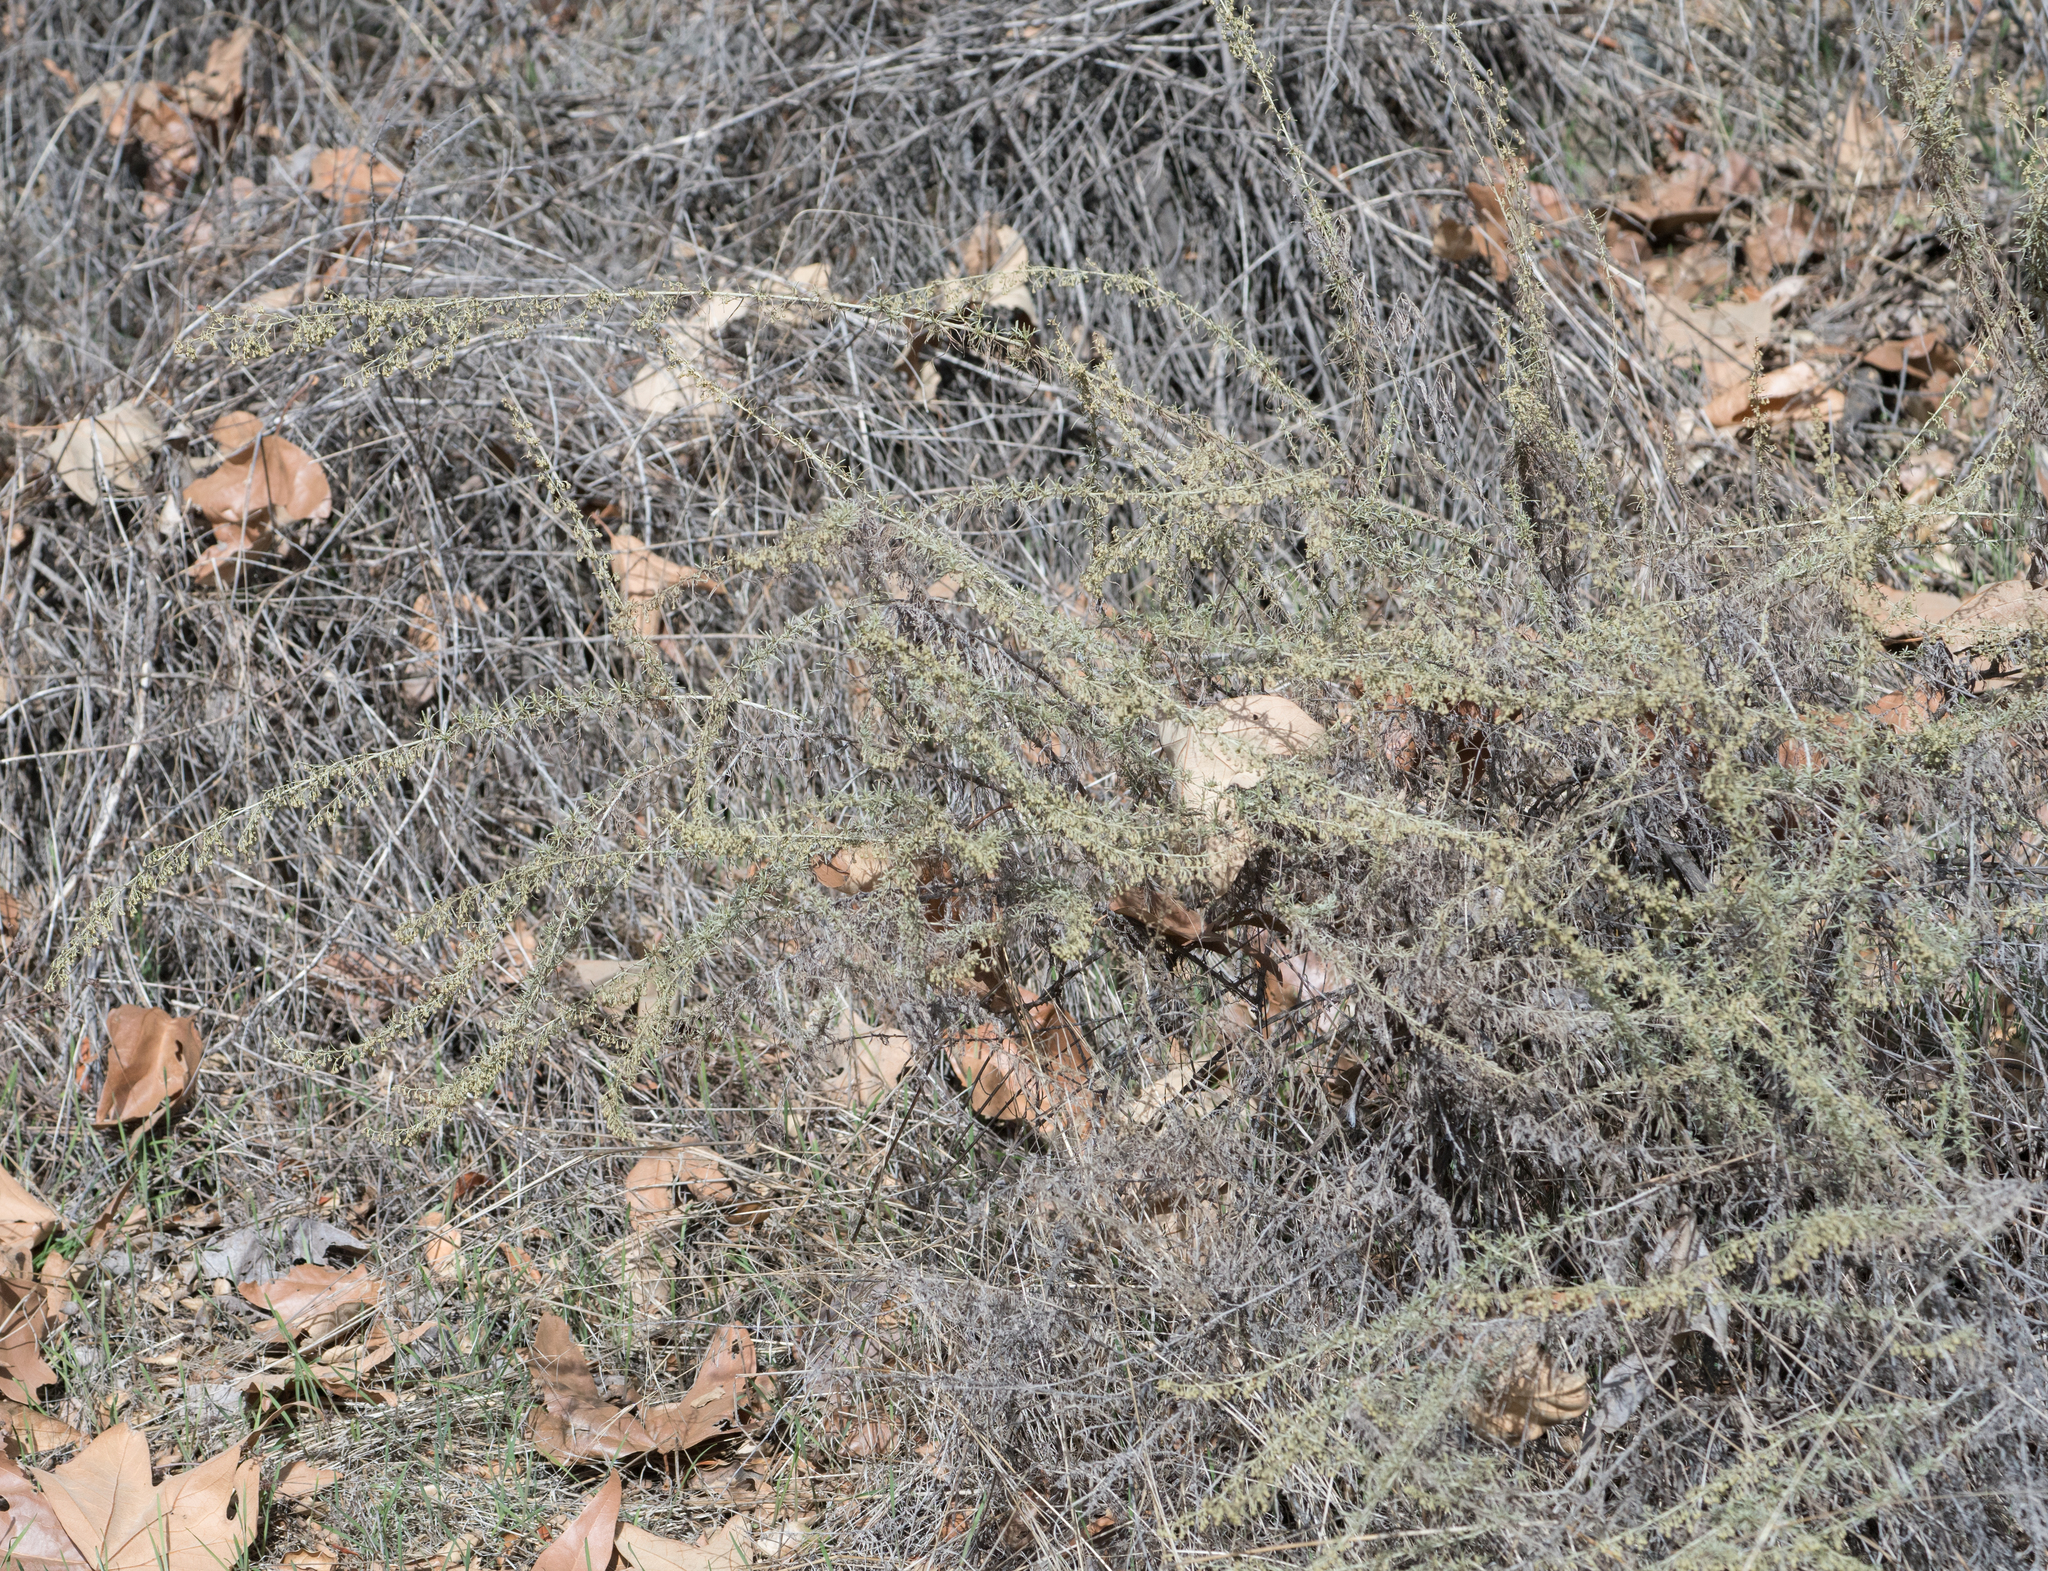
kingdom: Plantae
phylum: Tracheophyta
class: Magnoliopsida
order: Asterales
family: Asteraceae
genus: Artemisia
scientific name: Artemisia californica
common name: California sagebrush
